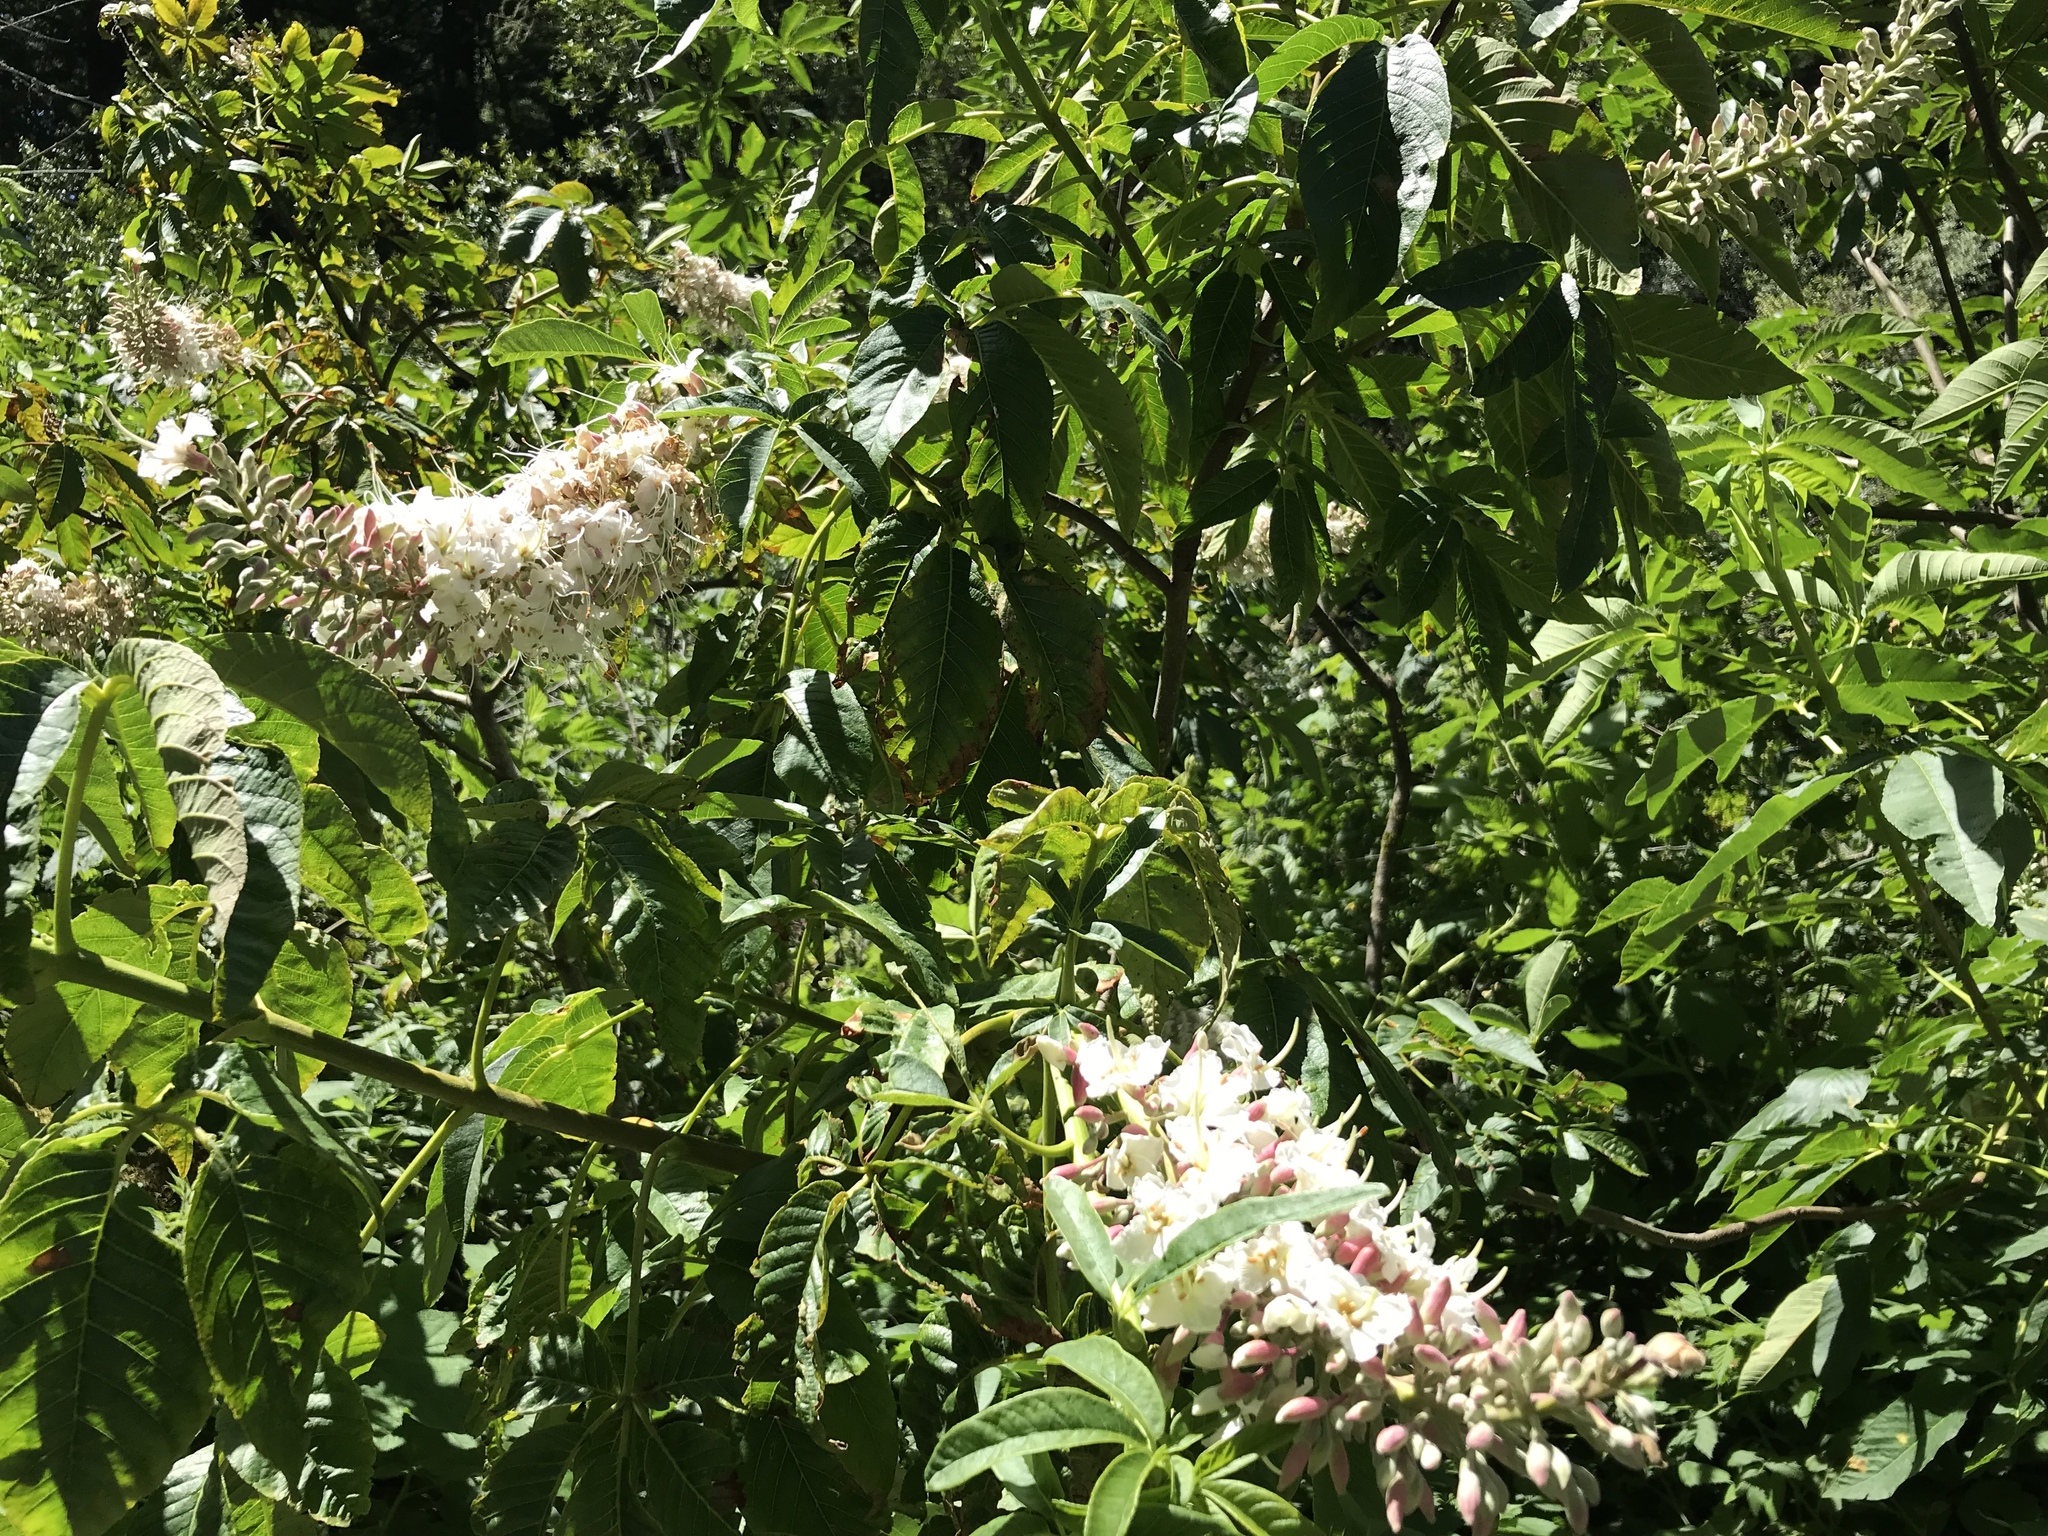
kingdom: Plantae
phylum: Tracheophyta
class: Magnoliopsida
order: Sapindales
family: Sapindaceae
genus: Aesculus
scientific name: Aesculus californica
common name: California buckeye
